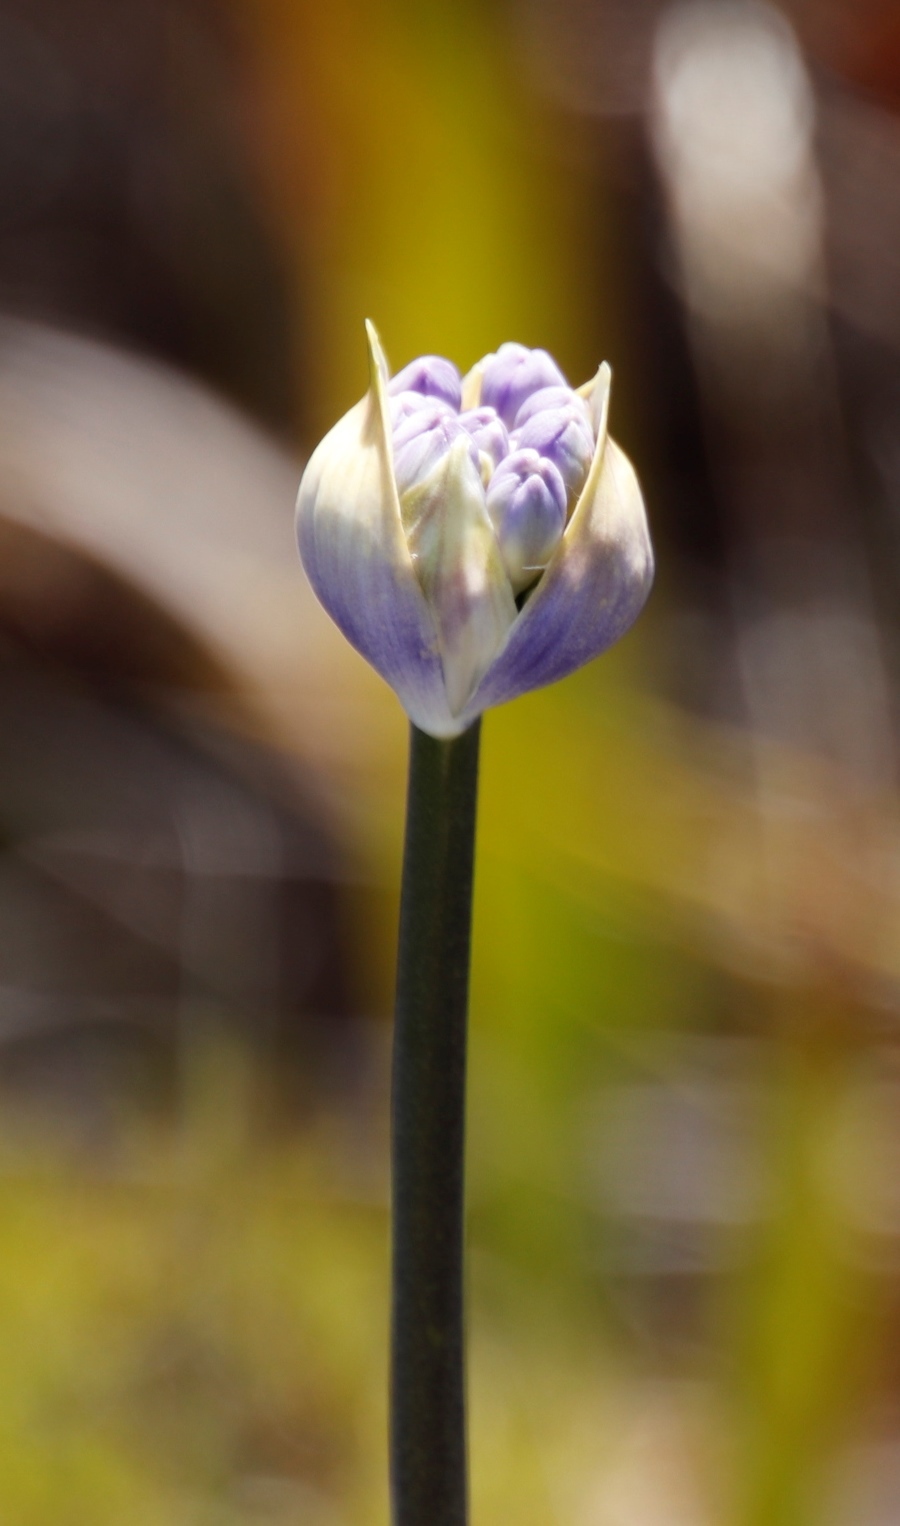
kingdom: Plantae
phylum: Tracheophyta
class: Liliopsida
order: Asparagales
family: Amaryllidaceae
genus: Agapanthus
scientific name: Agapanthus africanus
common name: Lily-of-the-nile
